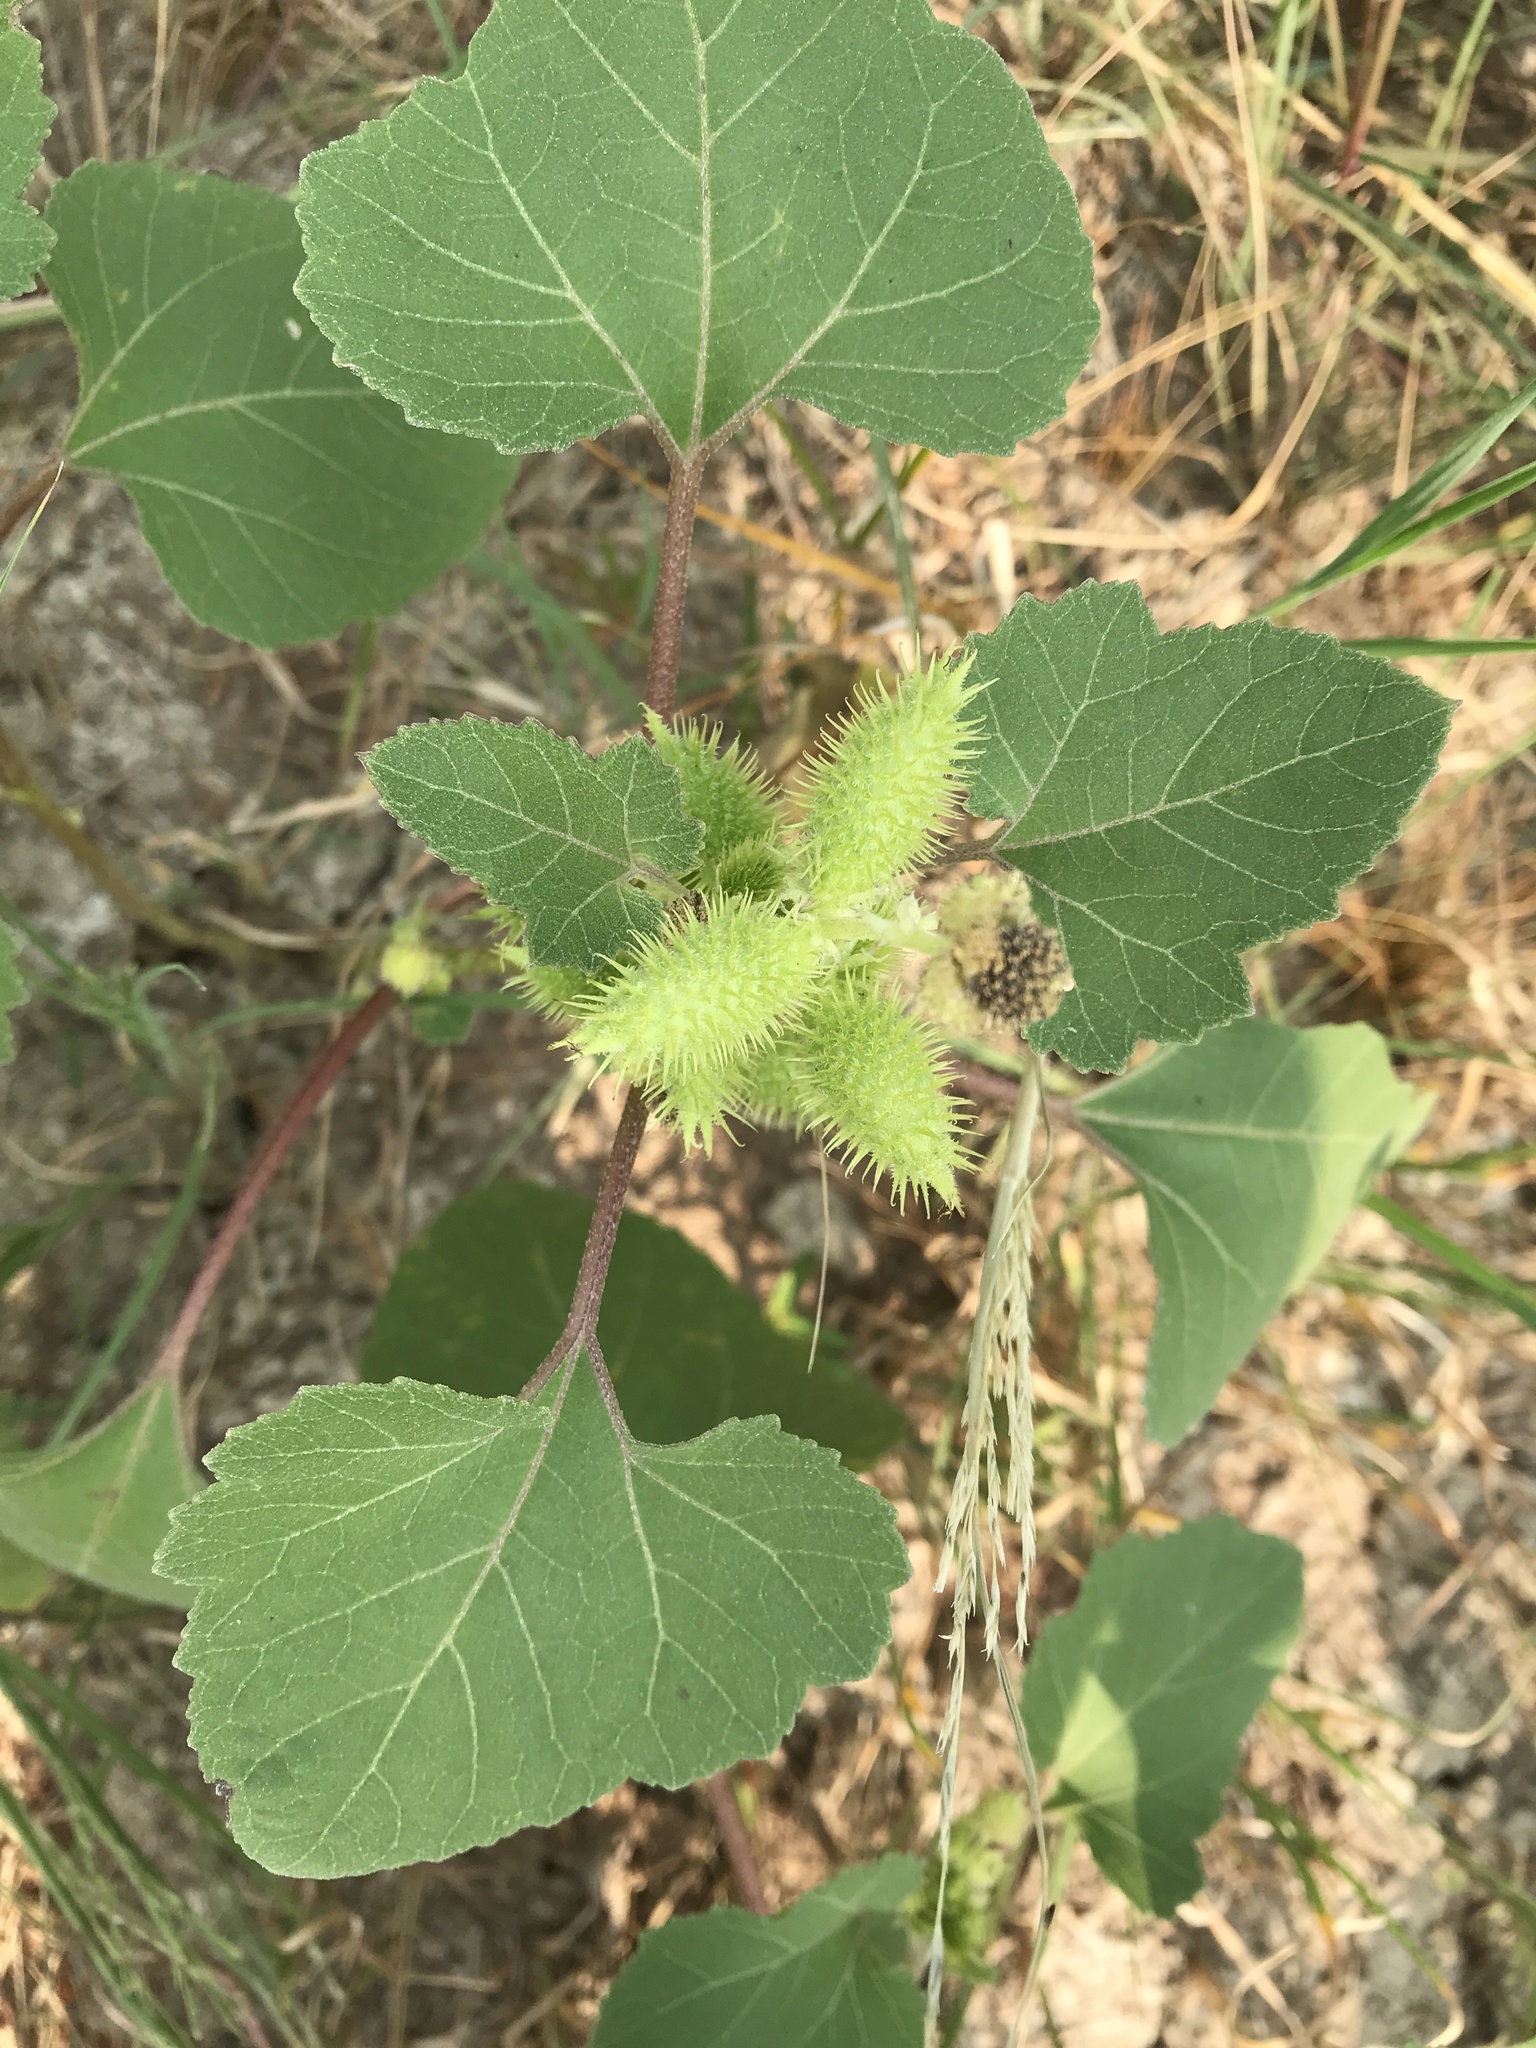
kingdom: Plantae
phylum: Tracheophyta
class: Magnoliopsida
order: Asterales
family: Asteraceae
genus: Xanthium
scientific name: Xanthium strumarium
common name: Rough cocklebur
